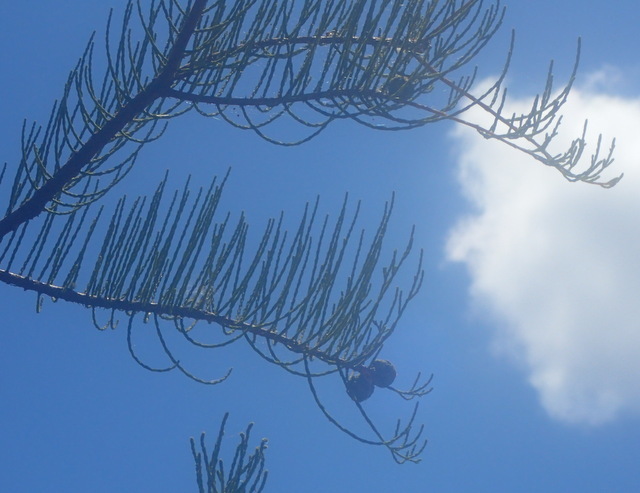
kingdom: Plantae
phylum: Tracheophyta
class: Pinopsida
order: Pinales
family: Cupressaceae
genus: Taxodium
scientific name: Taxodium distichum
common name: Bald cypress
